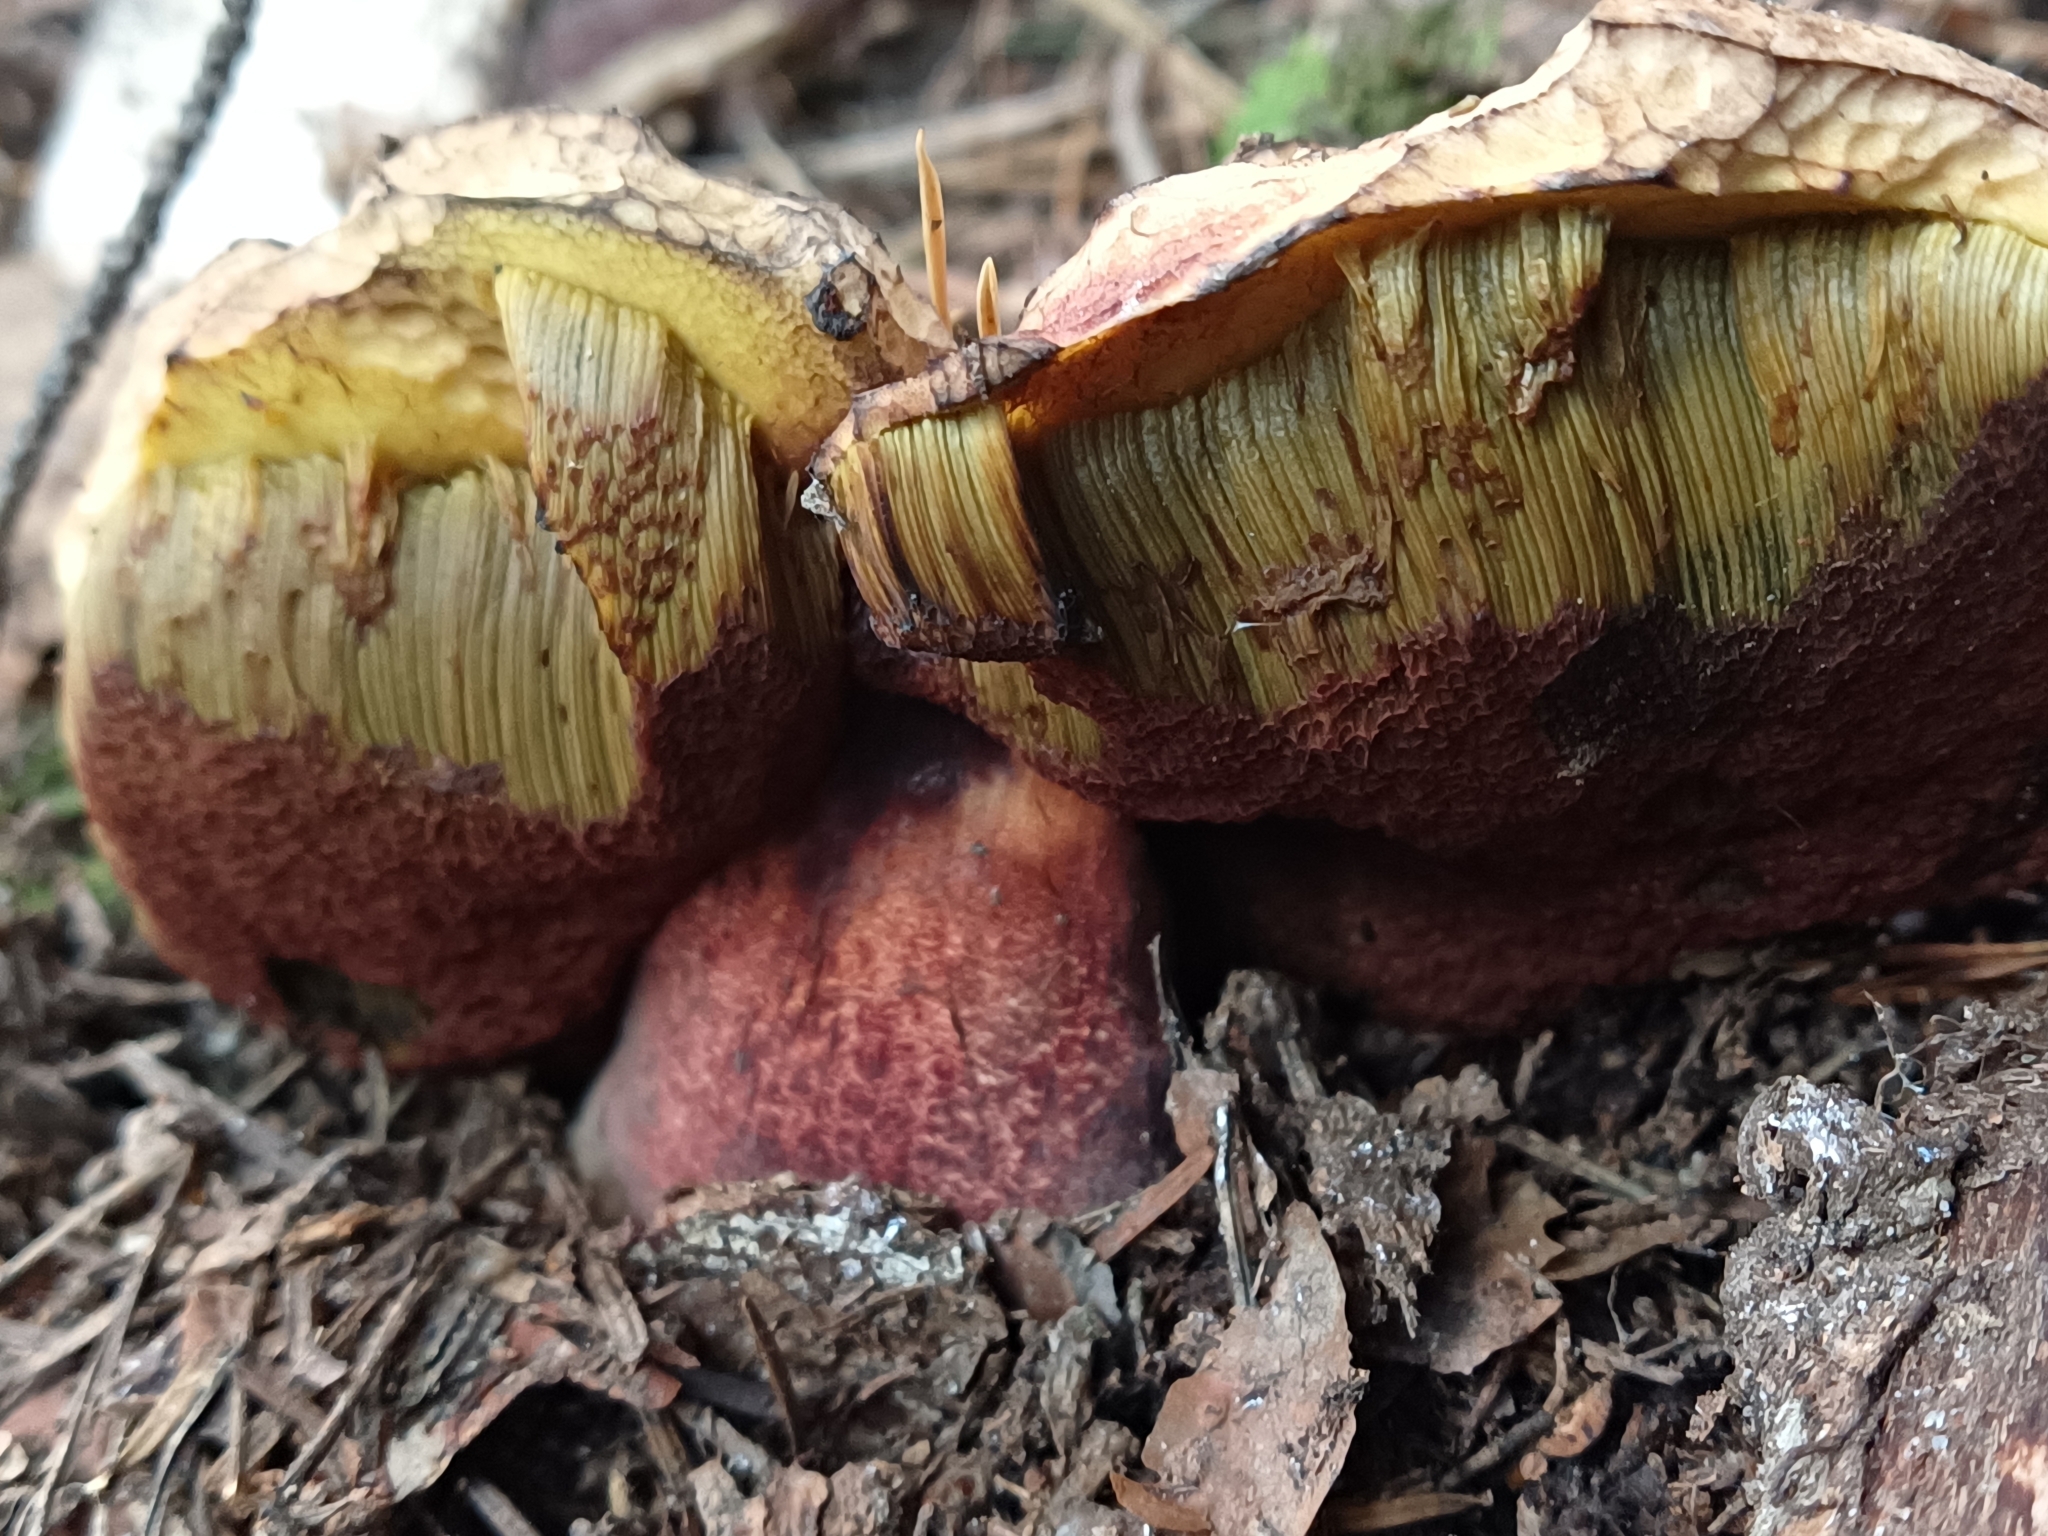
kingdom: Fungi
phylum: Basidiomycota
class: Agaricomycetes
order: Boletales
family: Boletaceae
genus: Neoboletus
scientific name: Neoboletus erythropus
